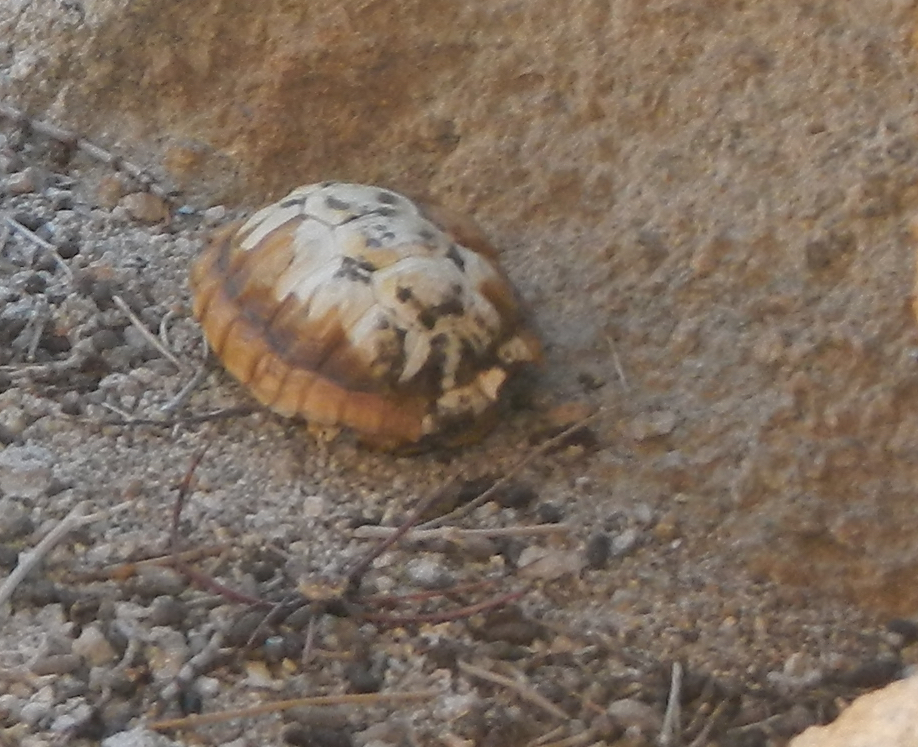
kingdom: Animalia
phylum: Chordata
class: Testudines
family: Testudinidae
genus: Gopherus
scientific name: Gopherus agassizii
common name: Mojave desert tortoise
